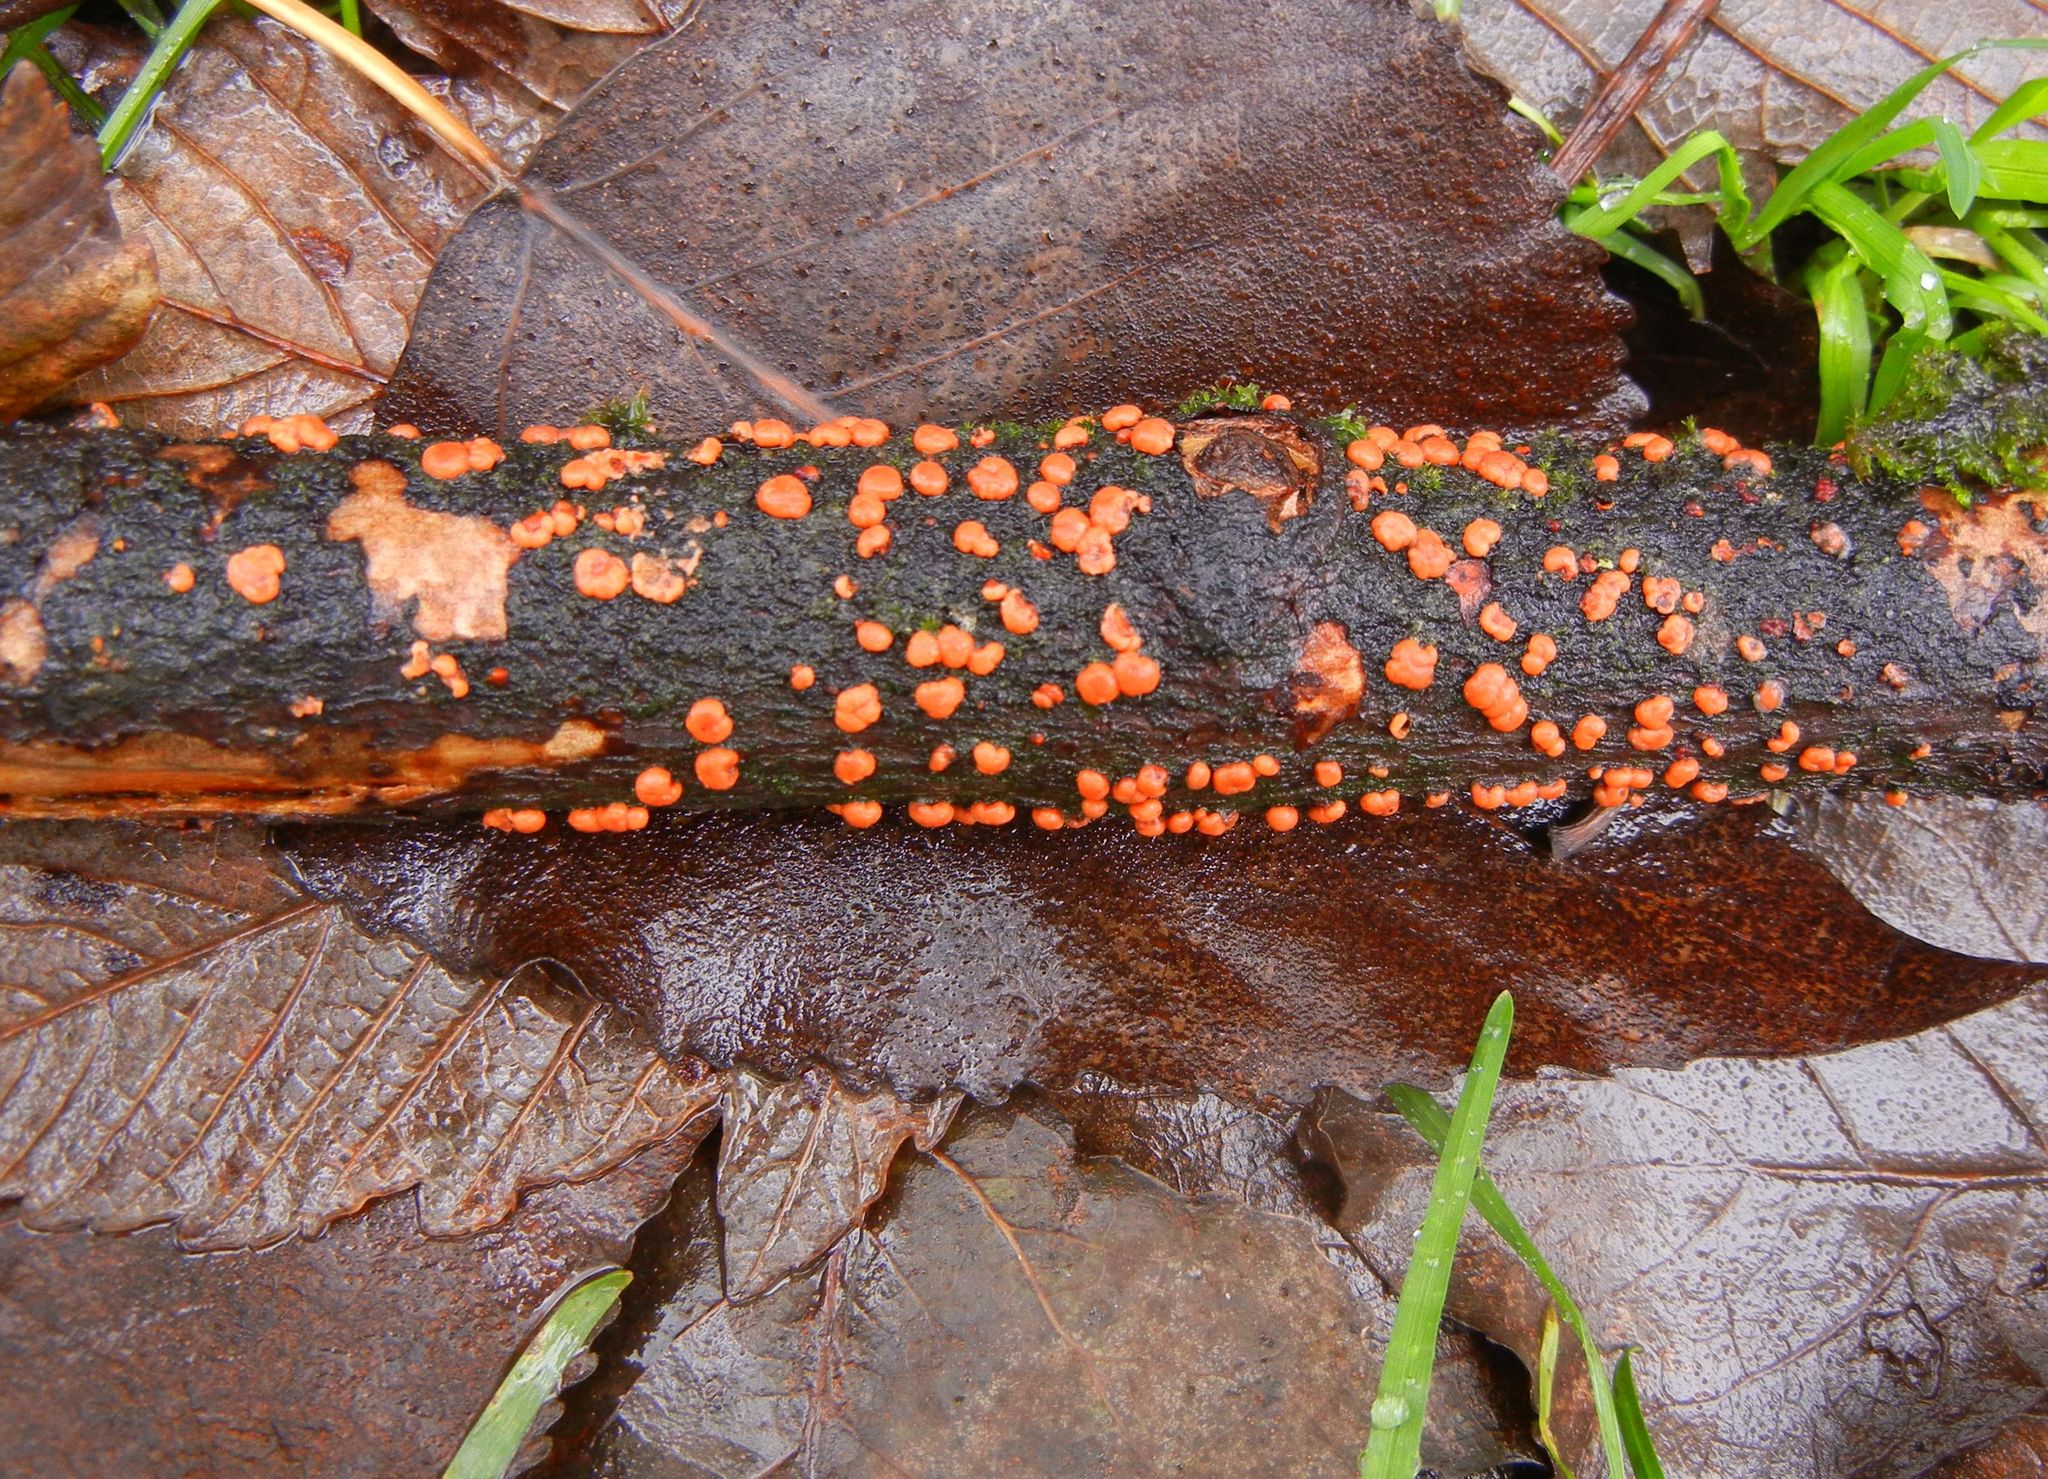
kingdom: Fungi
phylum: Ascomycota
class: Sordariomycetes
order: Hypocreales
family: Nectriaceae
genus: Nectria
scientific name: Nectria cinnabarina
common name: Coral spot
